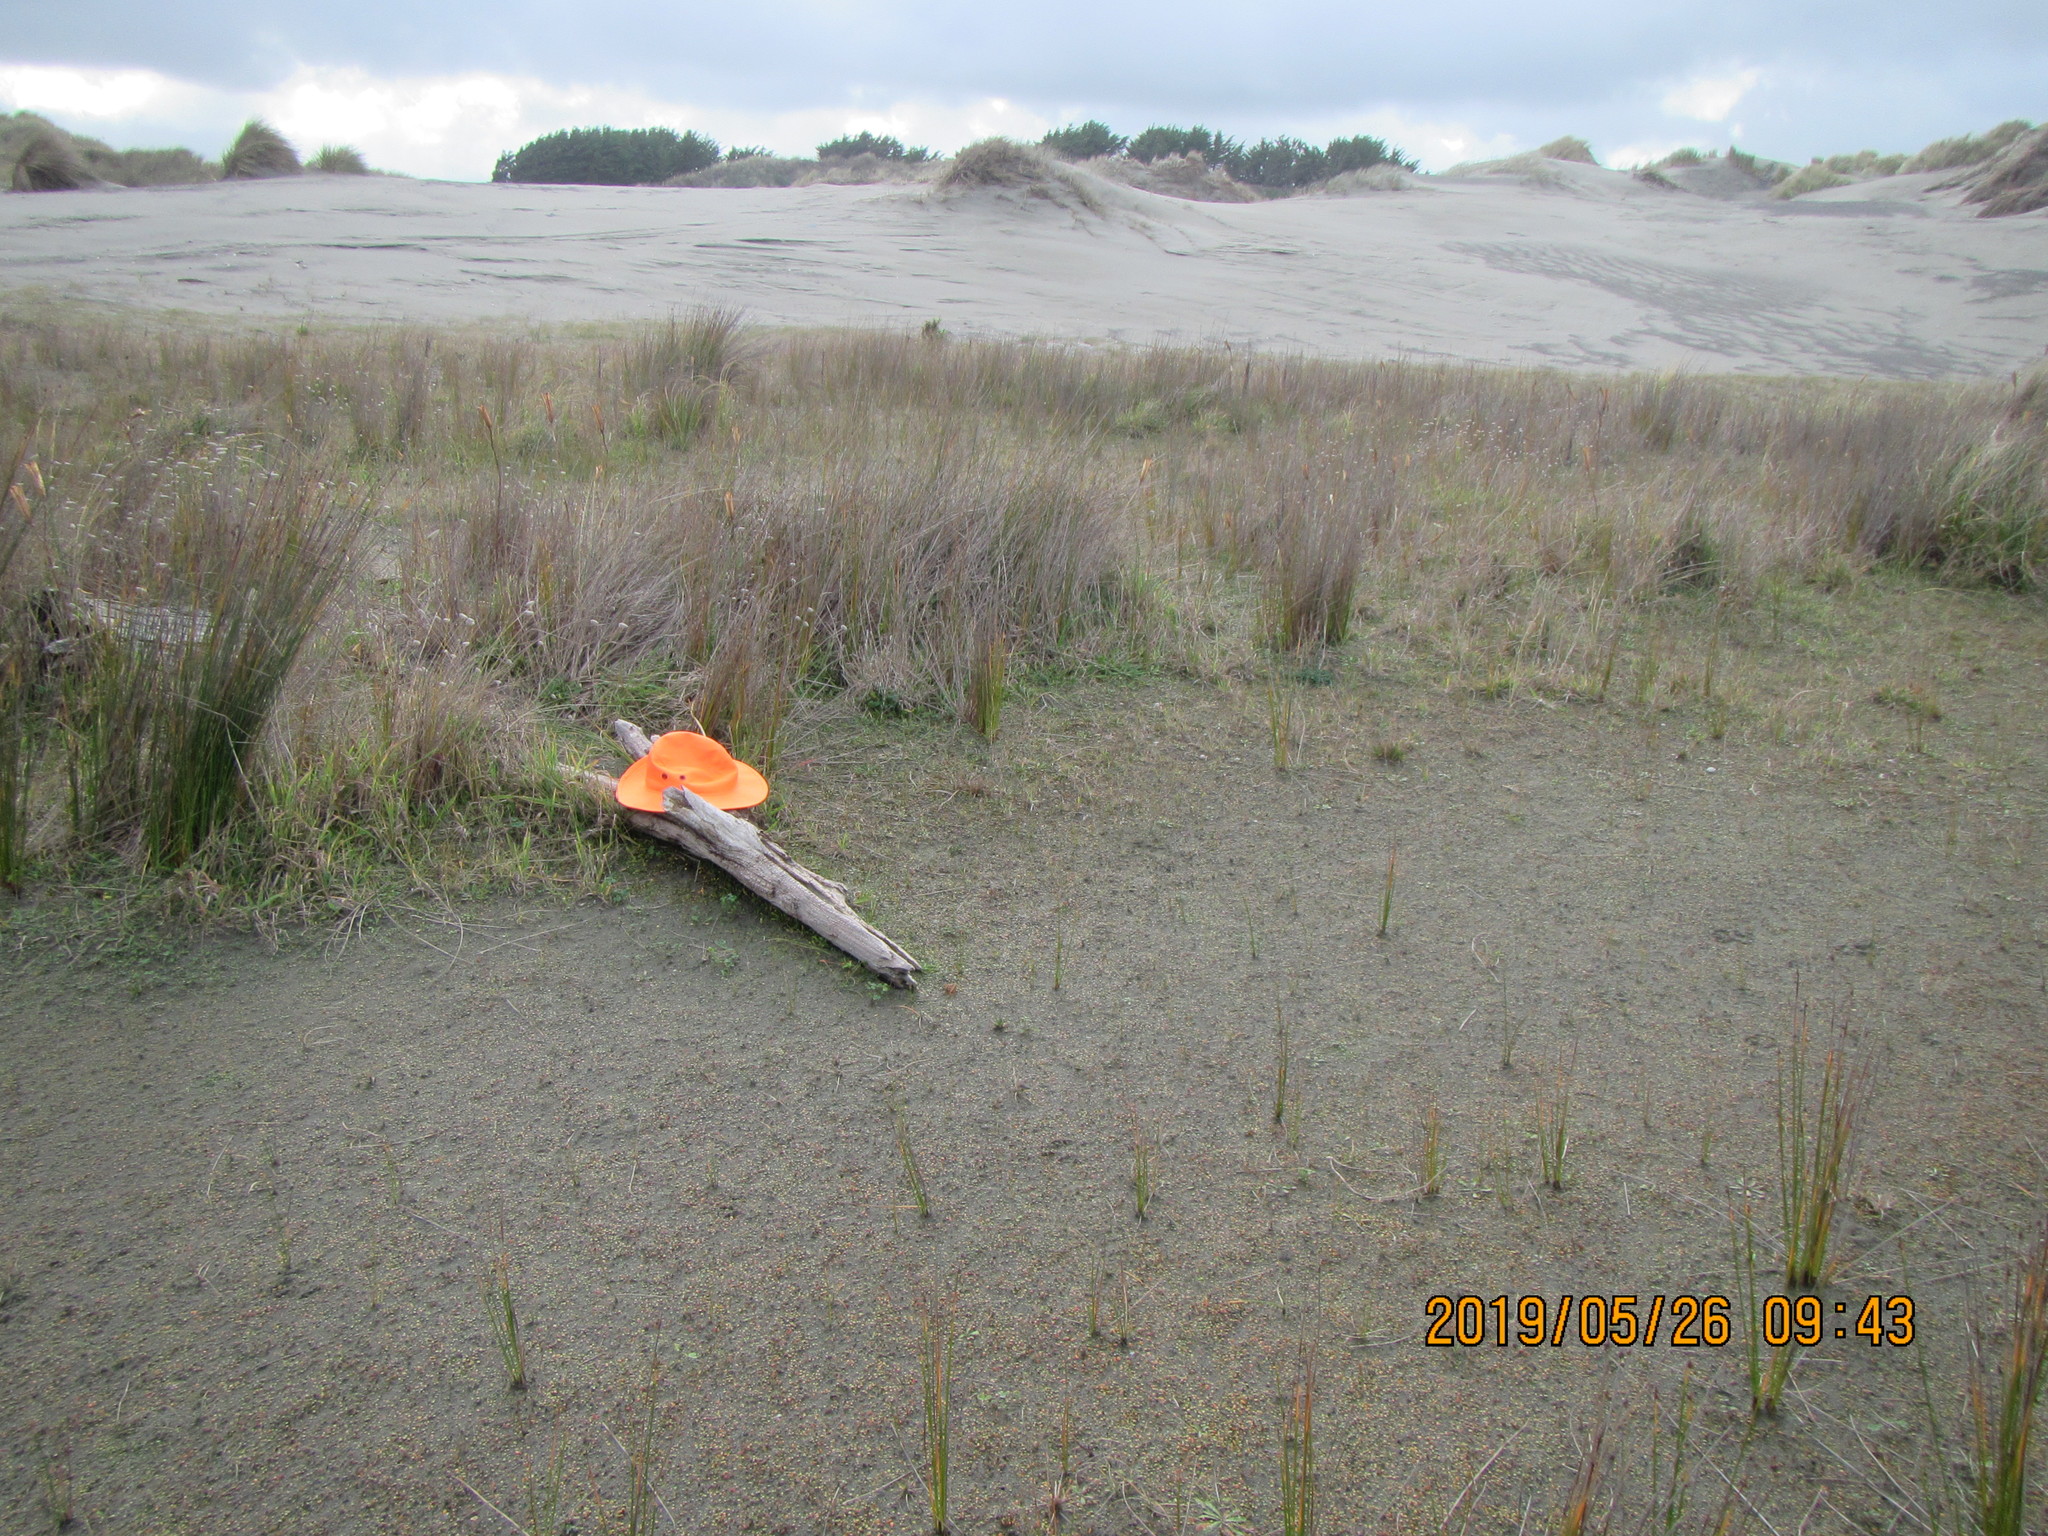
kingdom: Animalia
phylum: Arthropoda
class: Arachnida
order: Araneae
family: Thomisidae
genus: Sidymella
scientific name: Sidymella trapezia
